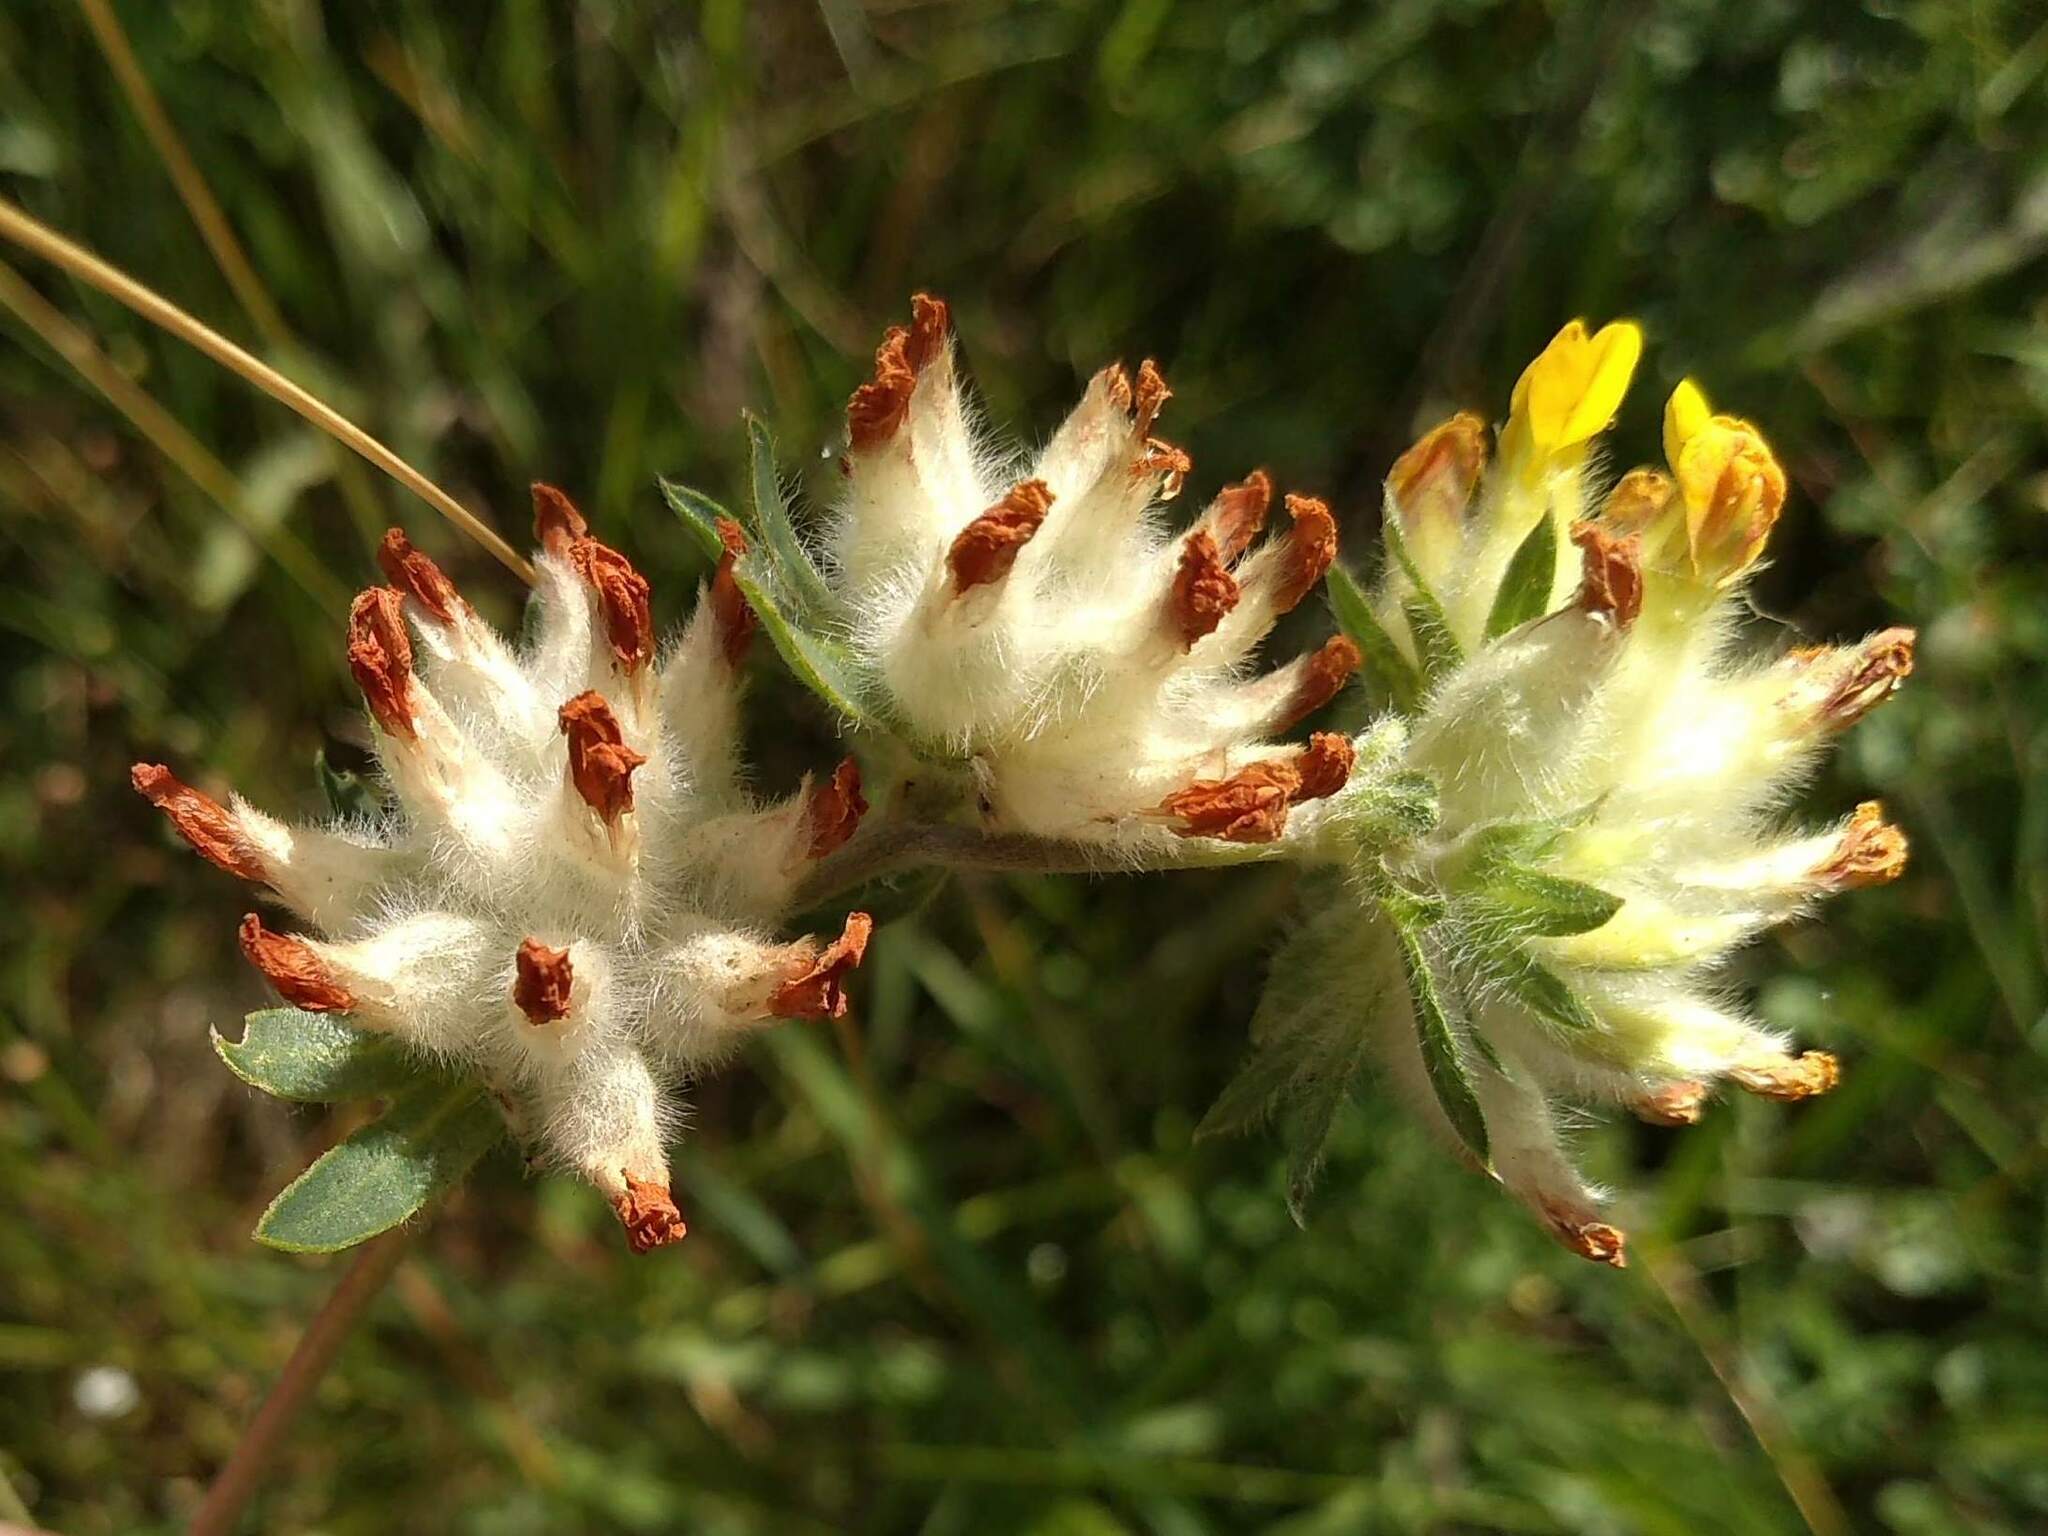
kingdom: Plantae
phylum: Tracheophyta
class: Magnoliopsida
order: Fabales
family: Fabaceae
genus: Anthyllis
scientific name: Anthyllis vulneraria
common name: Kidney vetch
